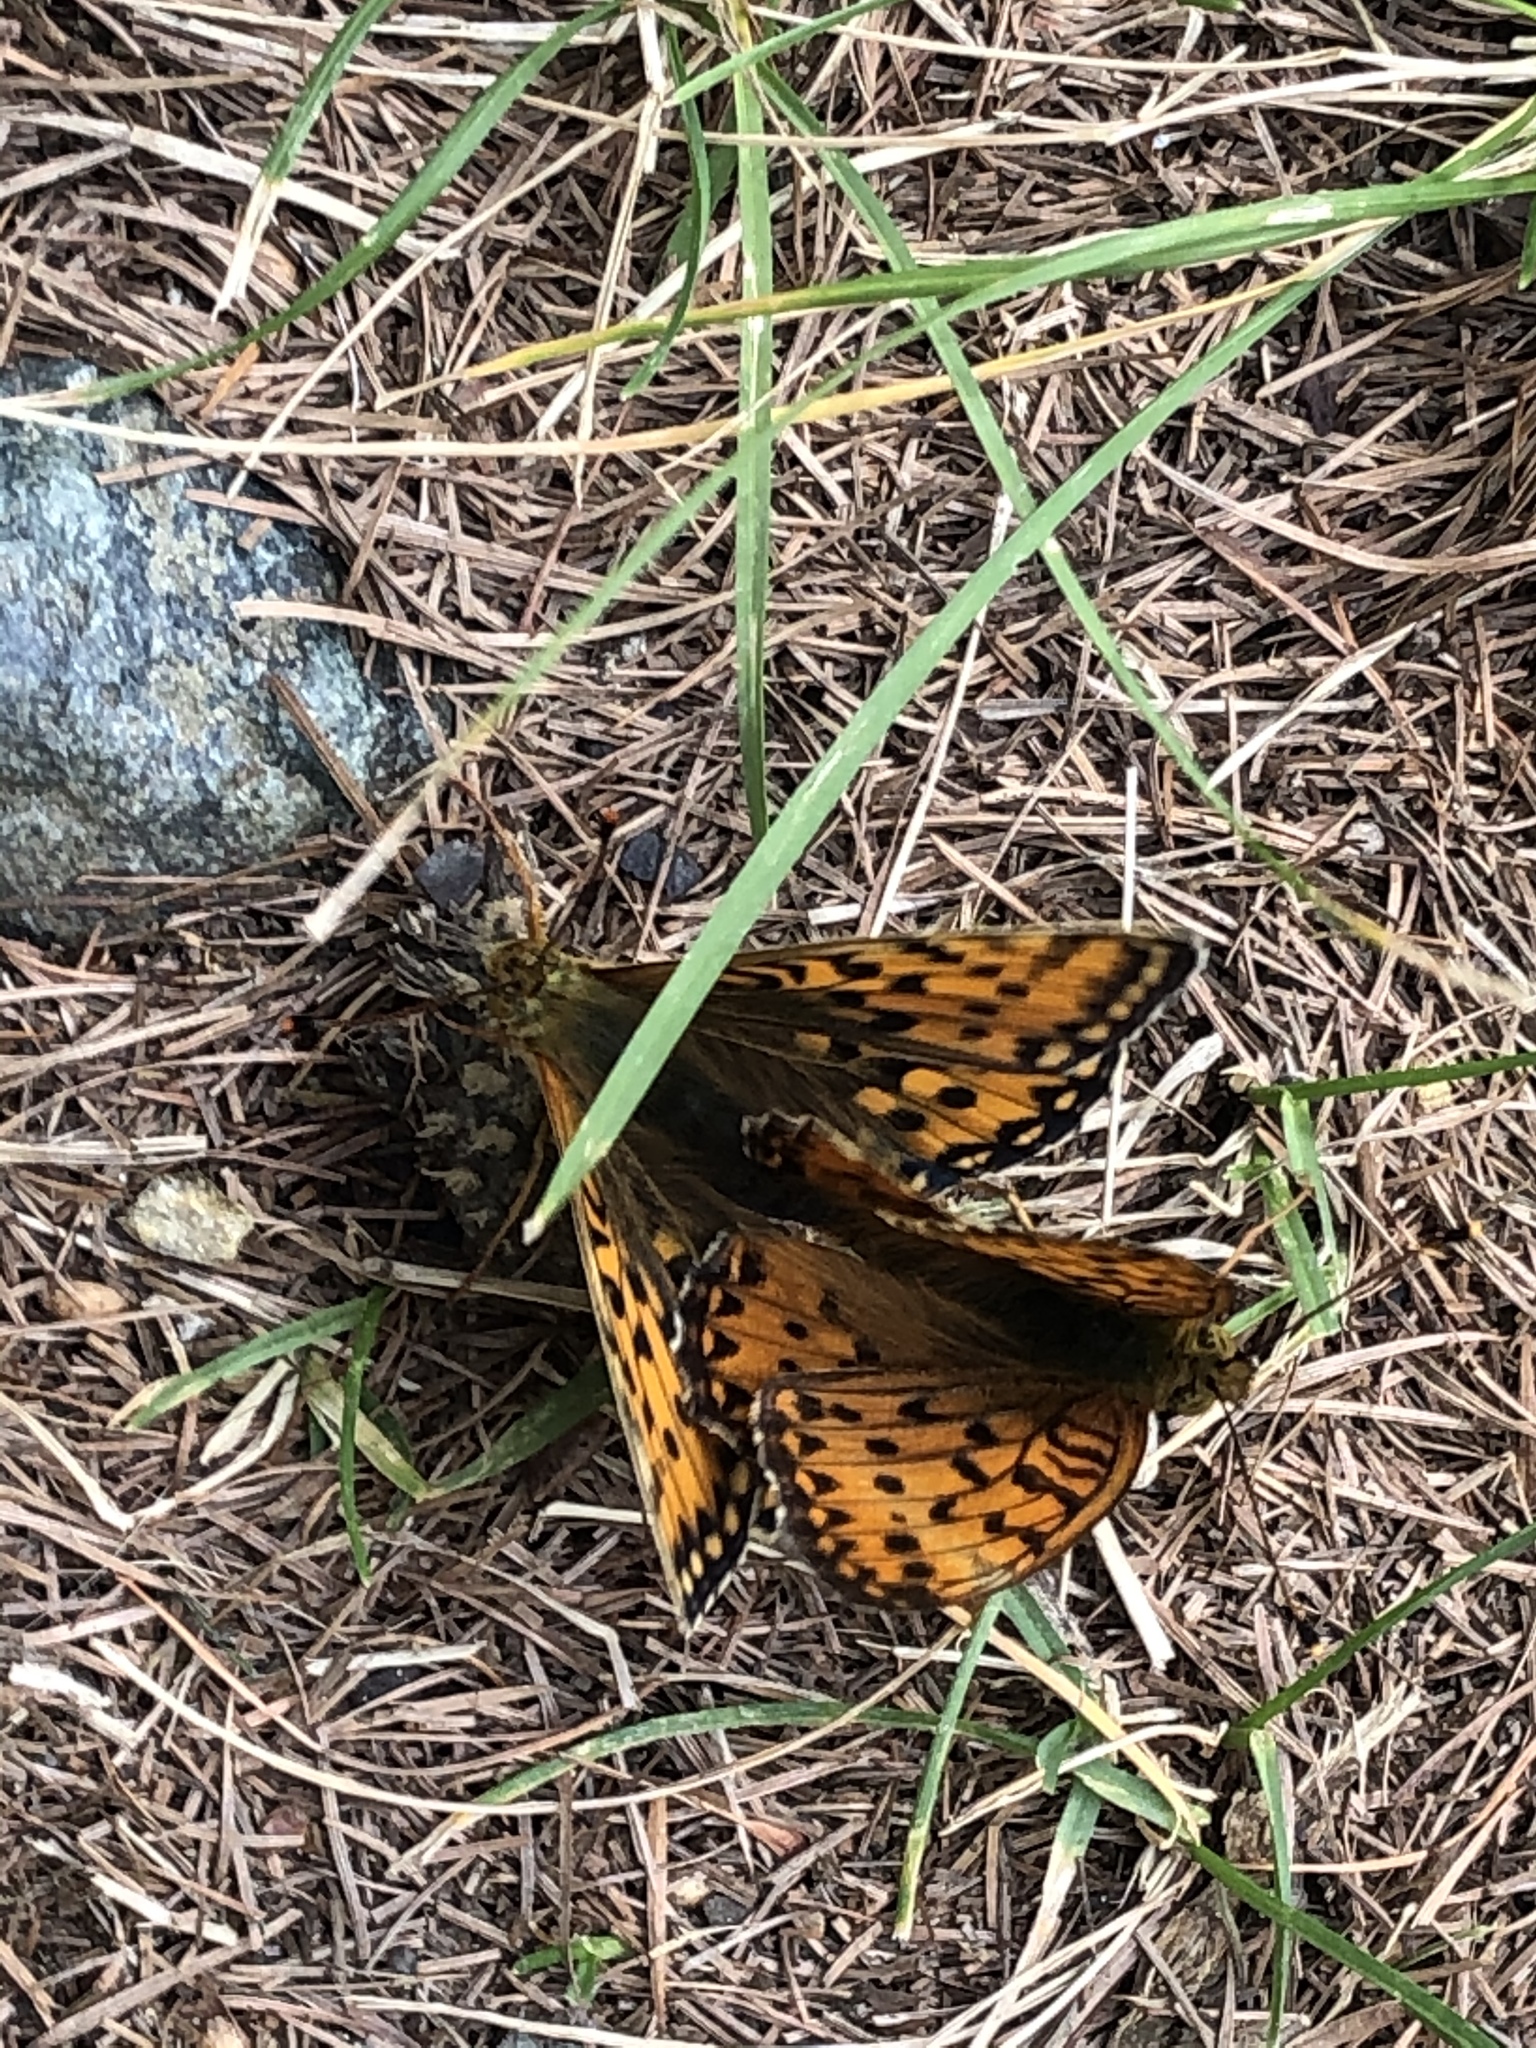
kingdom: Animalia
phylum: Arthropoda
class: Insecta
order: Lepidoptera
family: Nymphalidae
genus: Speyeria
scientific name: Speyeria aglaja
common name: Dark green fritillary
